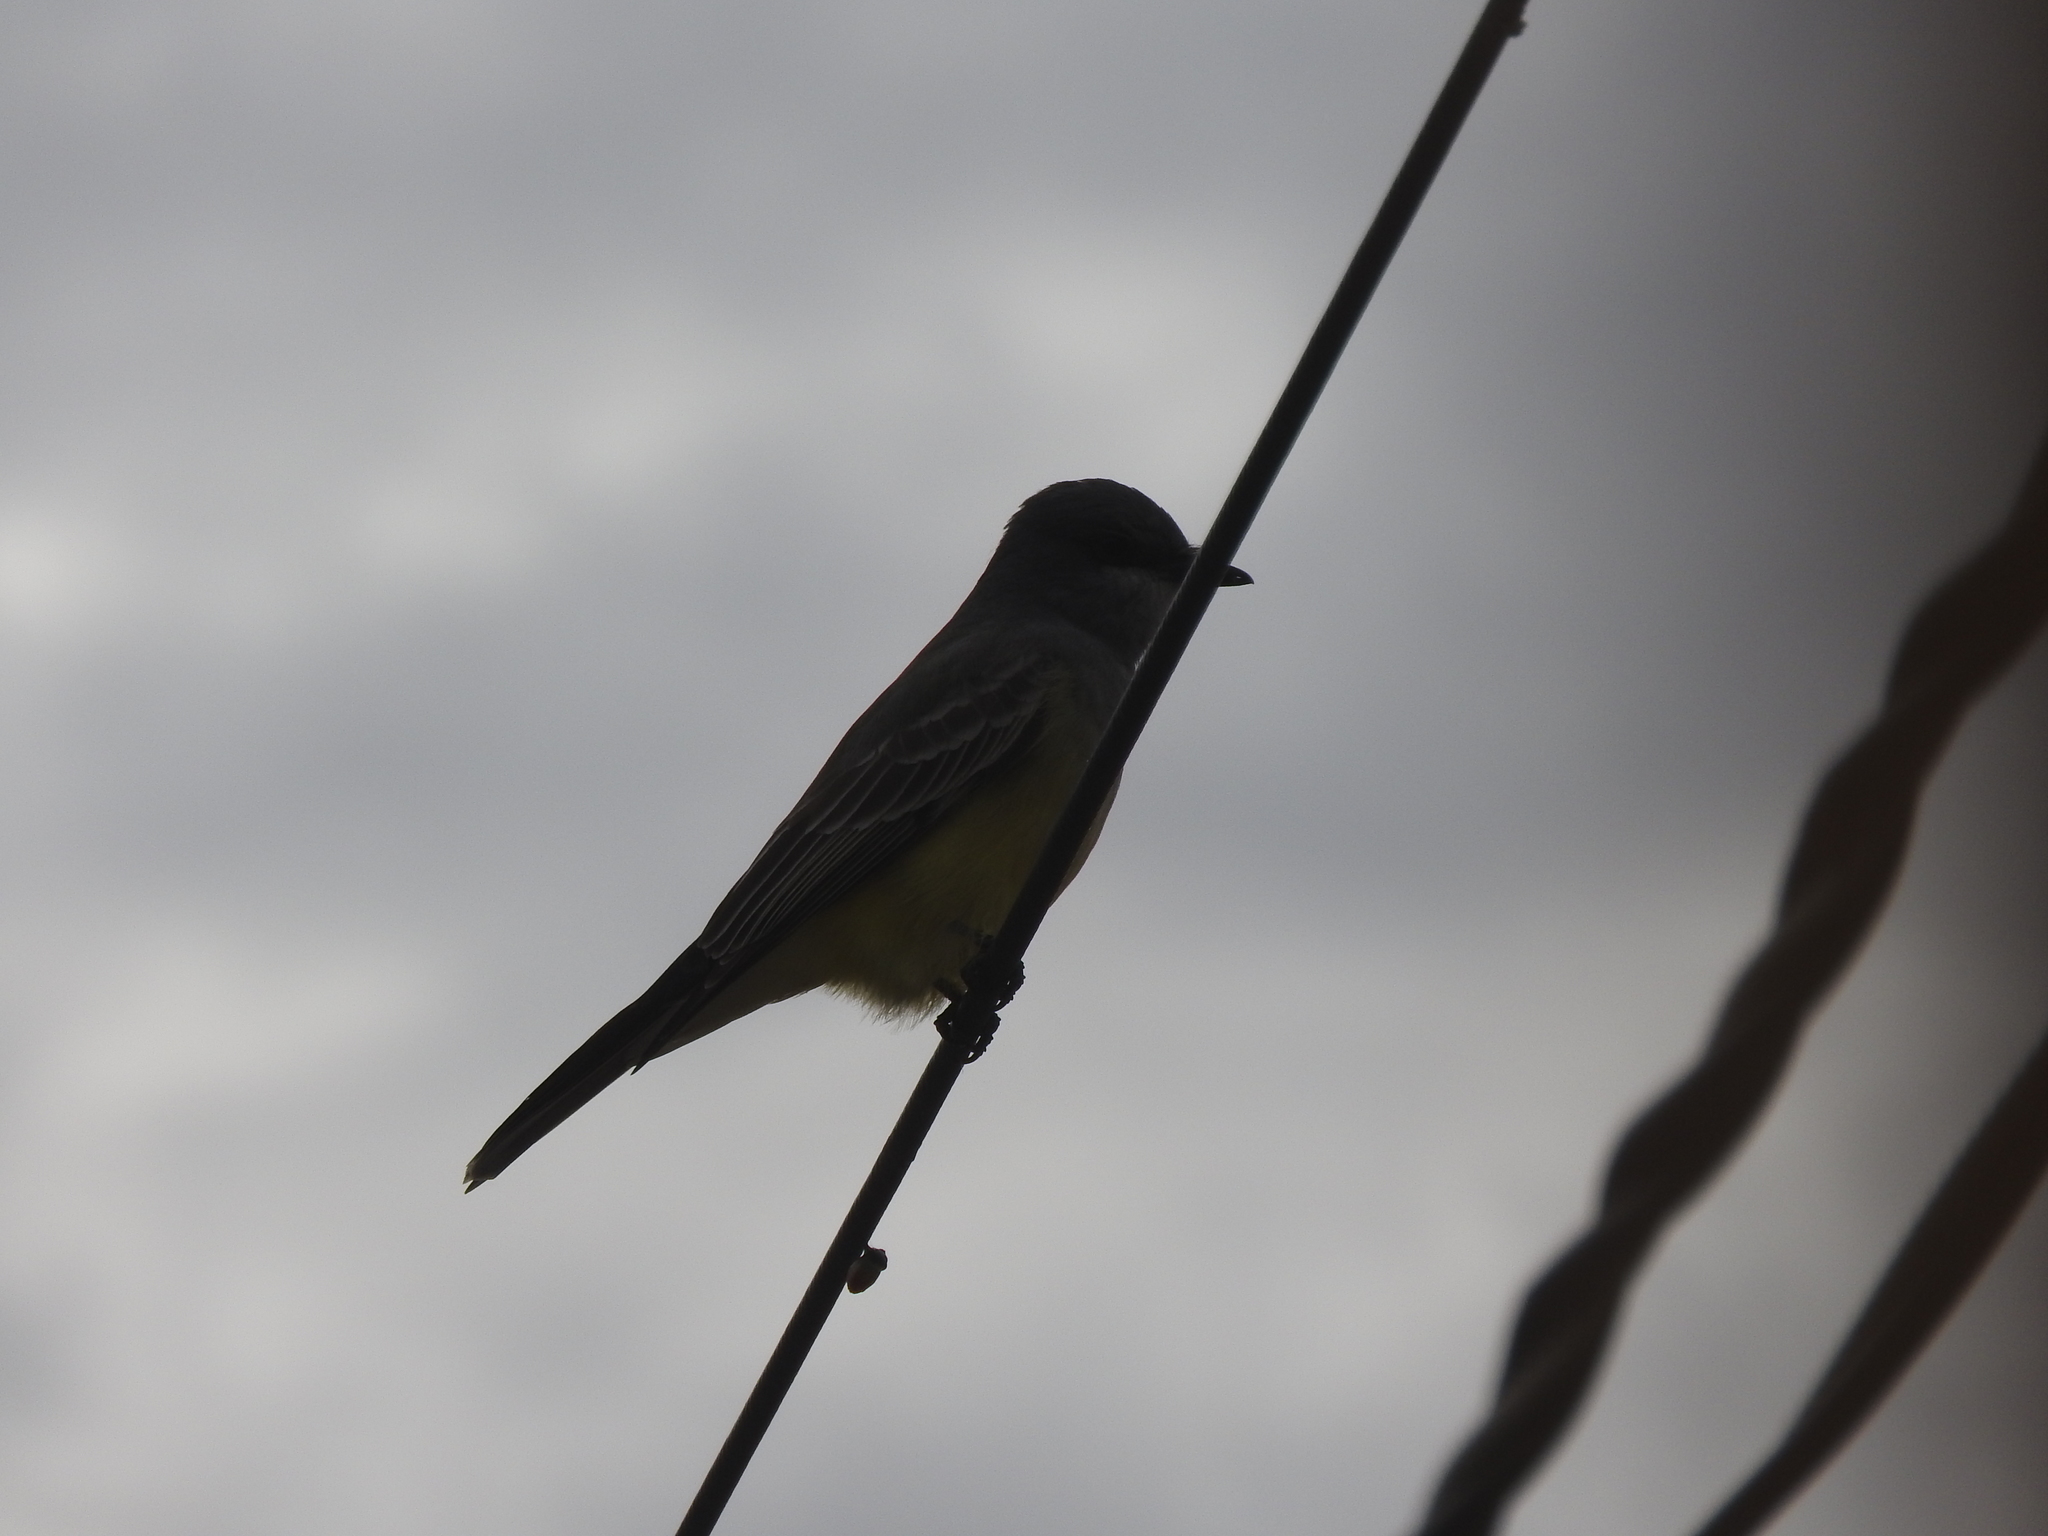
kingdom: Animalia
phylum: Chordata
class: Aves
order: Passeriformes
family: Tyrannidae
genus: Tyrannus
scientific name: Tyrannus vociferans
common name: Cassin's kingbird
